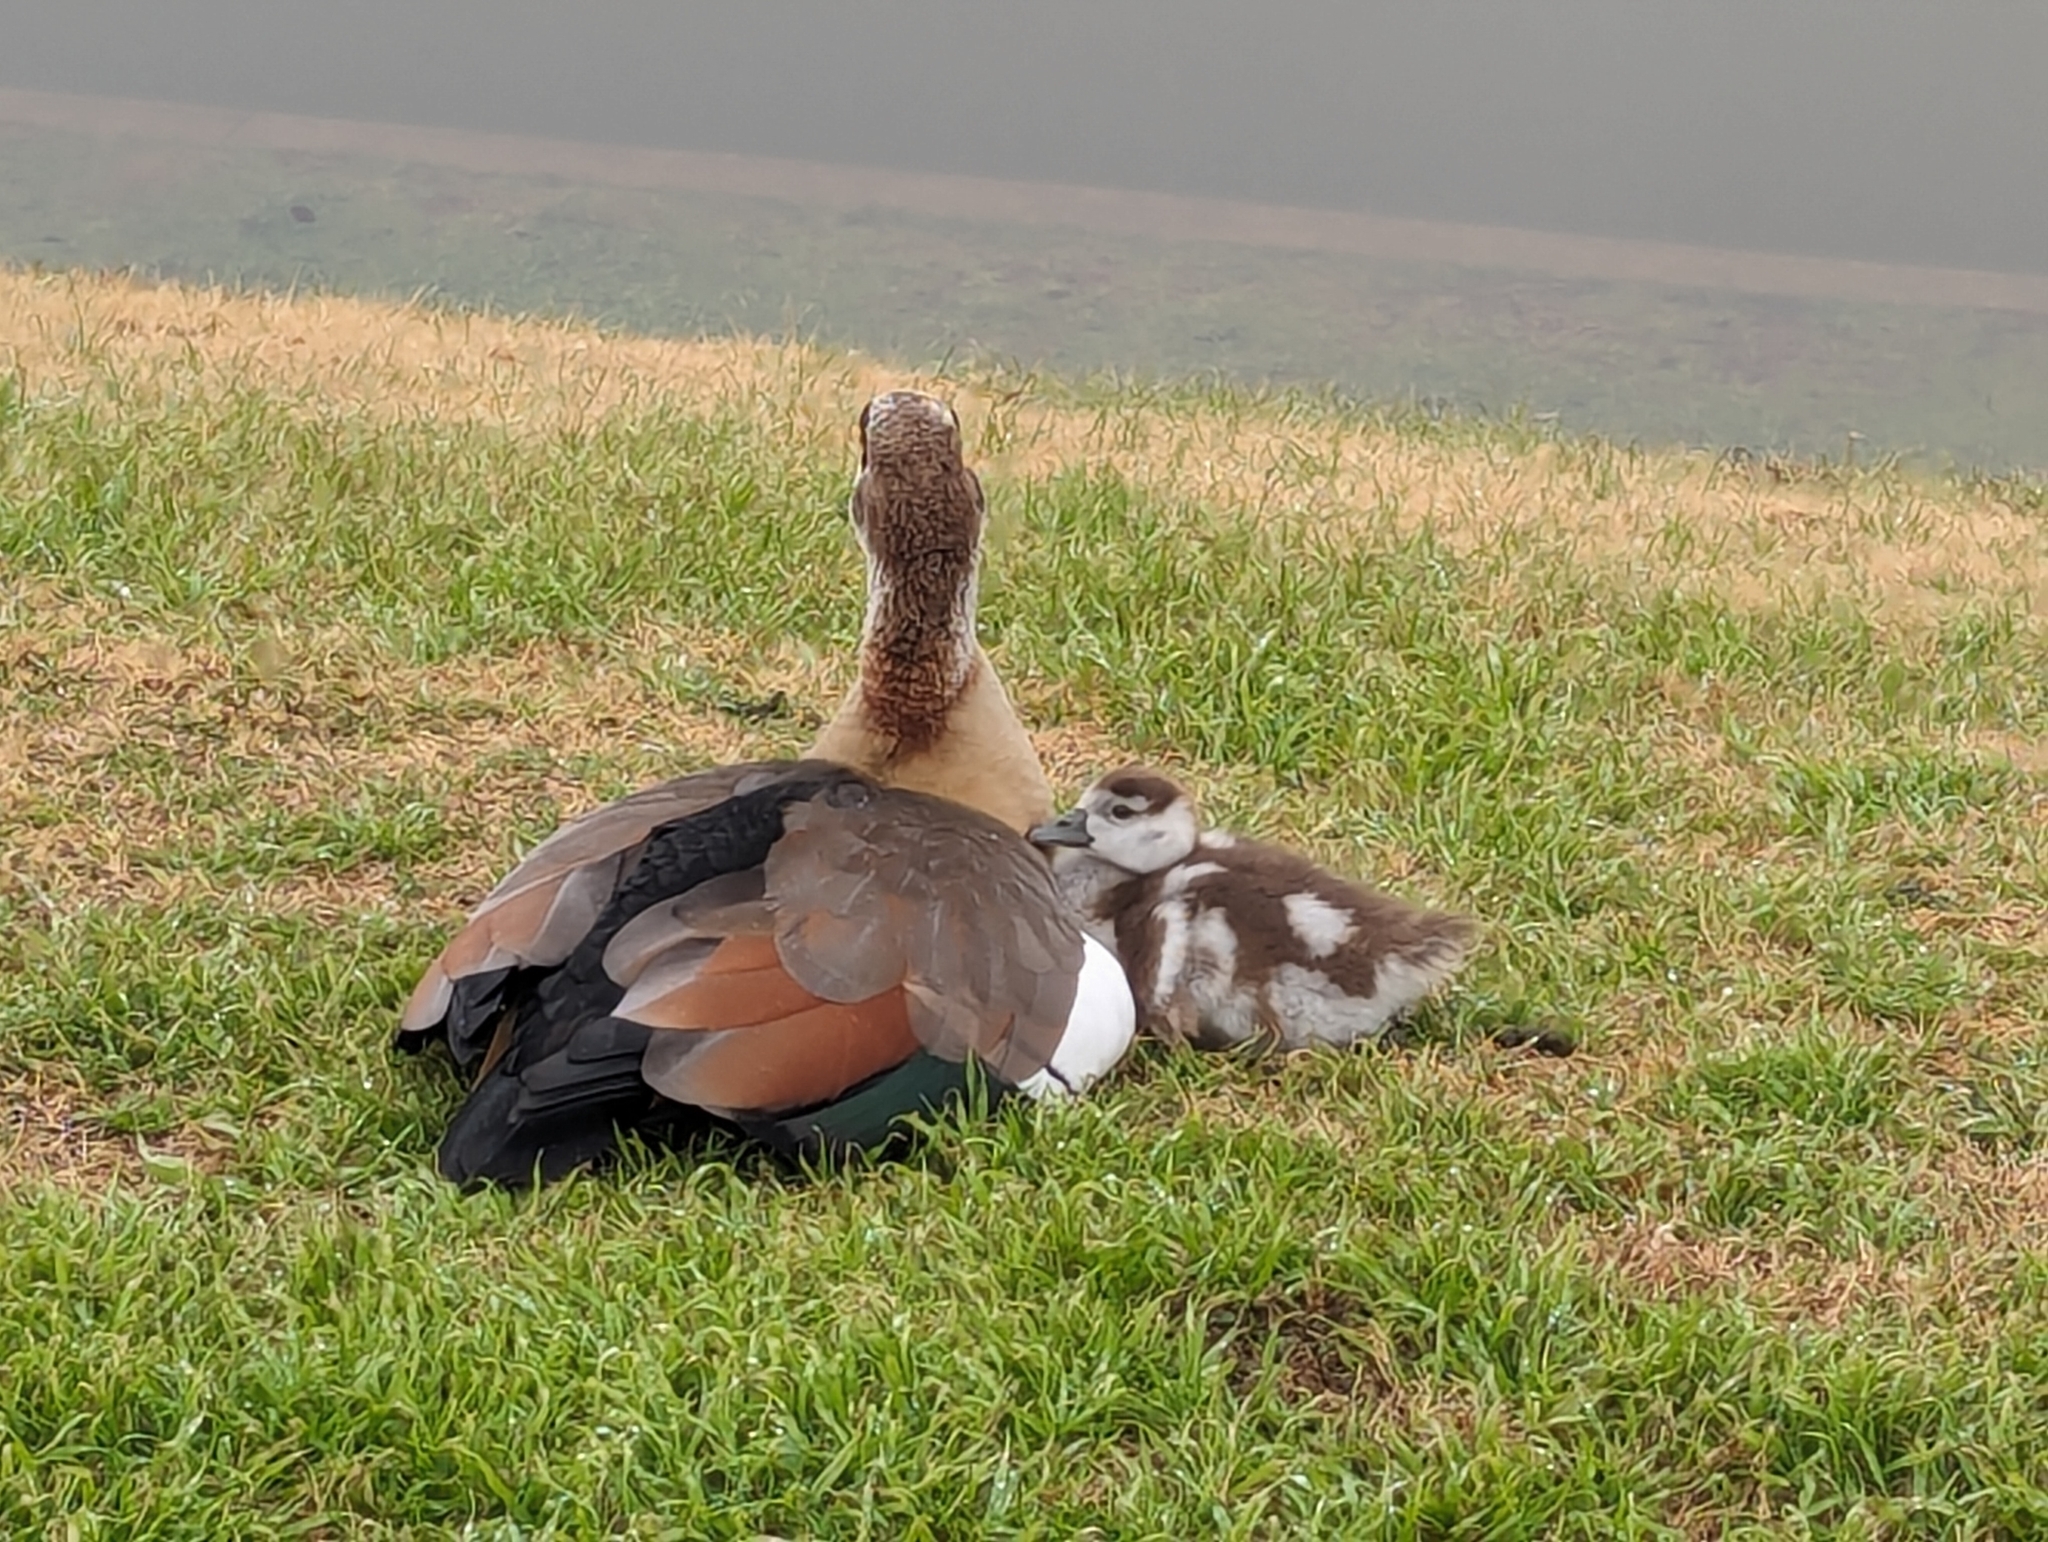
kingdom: Animalia
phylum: Chordata
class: Aves
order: Anseriformes
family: Anatidae
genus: Alopochen
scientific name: Alopochen aegyptiaca
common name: Egyptian goose
